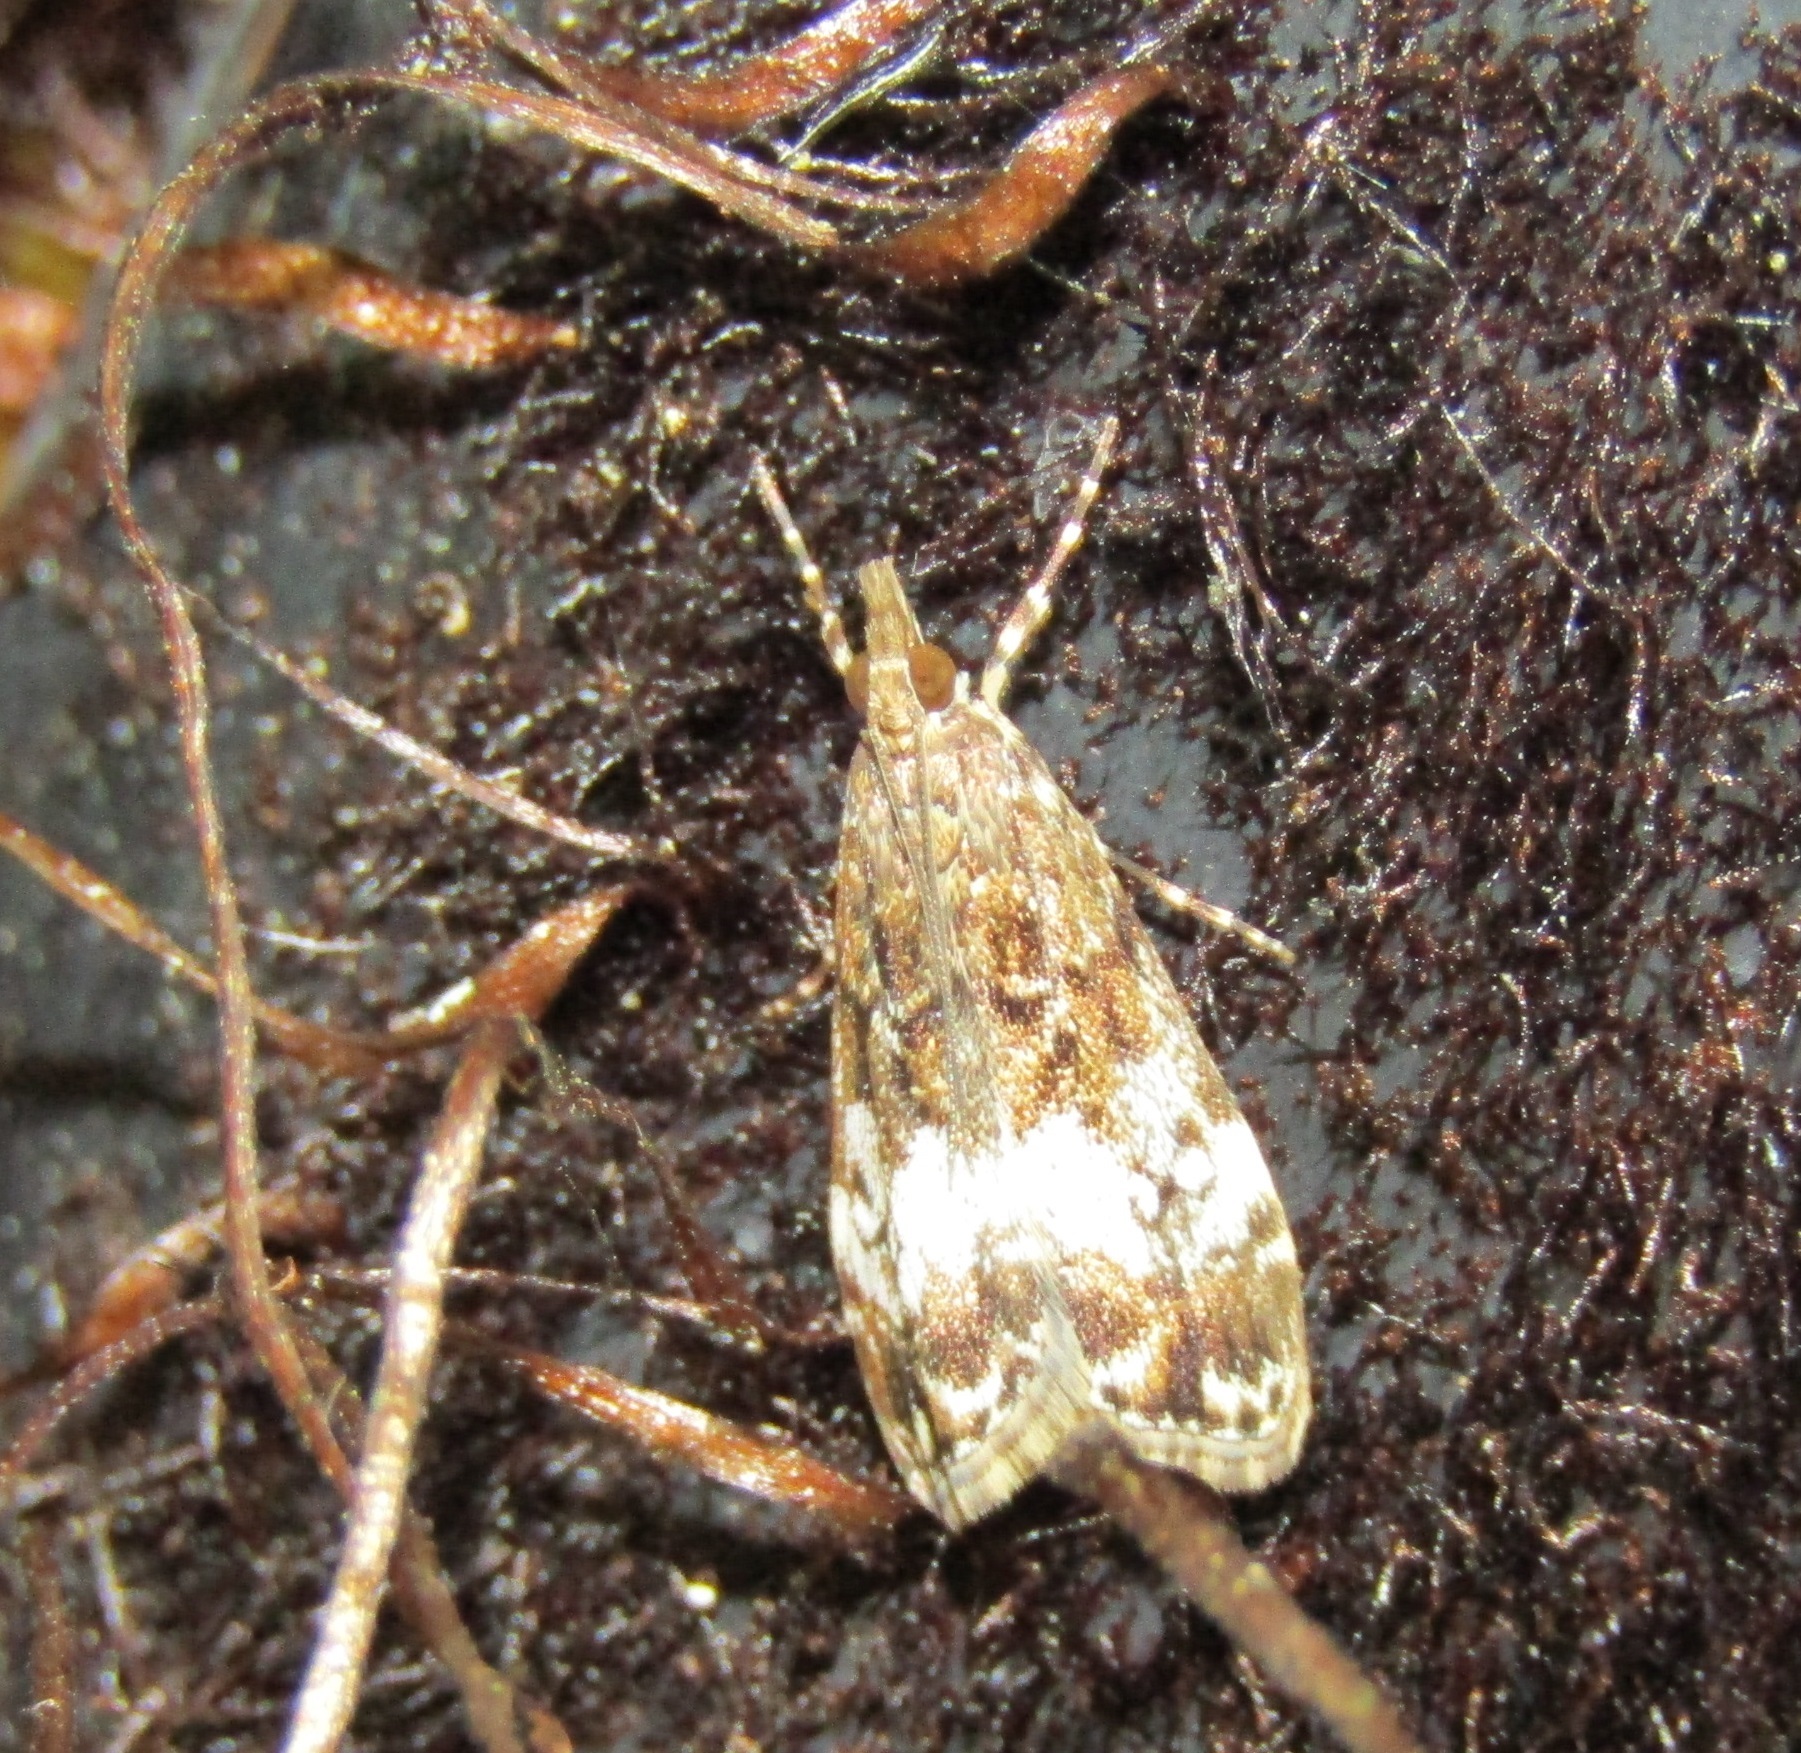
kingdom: Animalia
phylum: Arthropoda
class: Insecta
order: Lepidoptera
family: Crambidae
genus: Eudonia
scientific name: Eudonia dinodes
